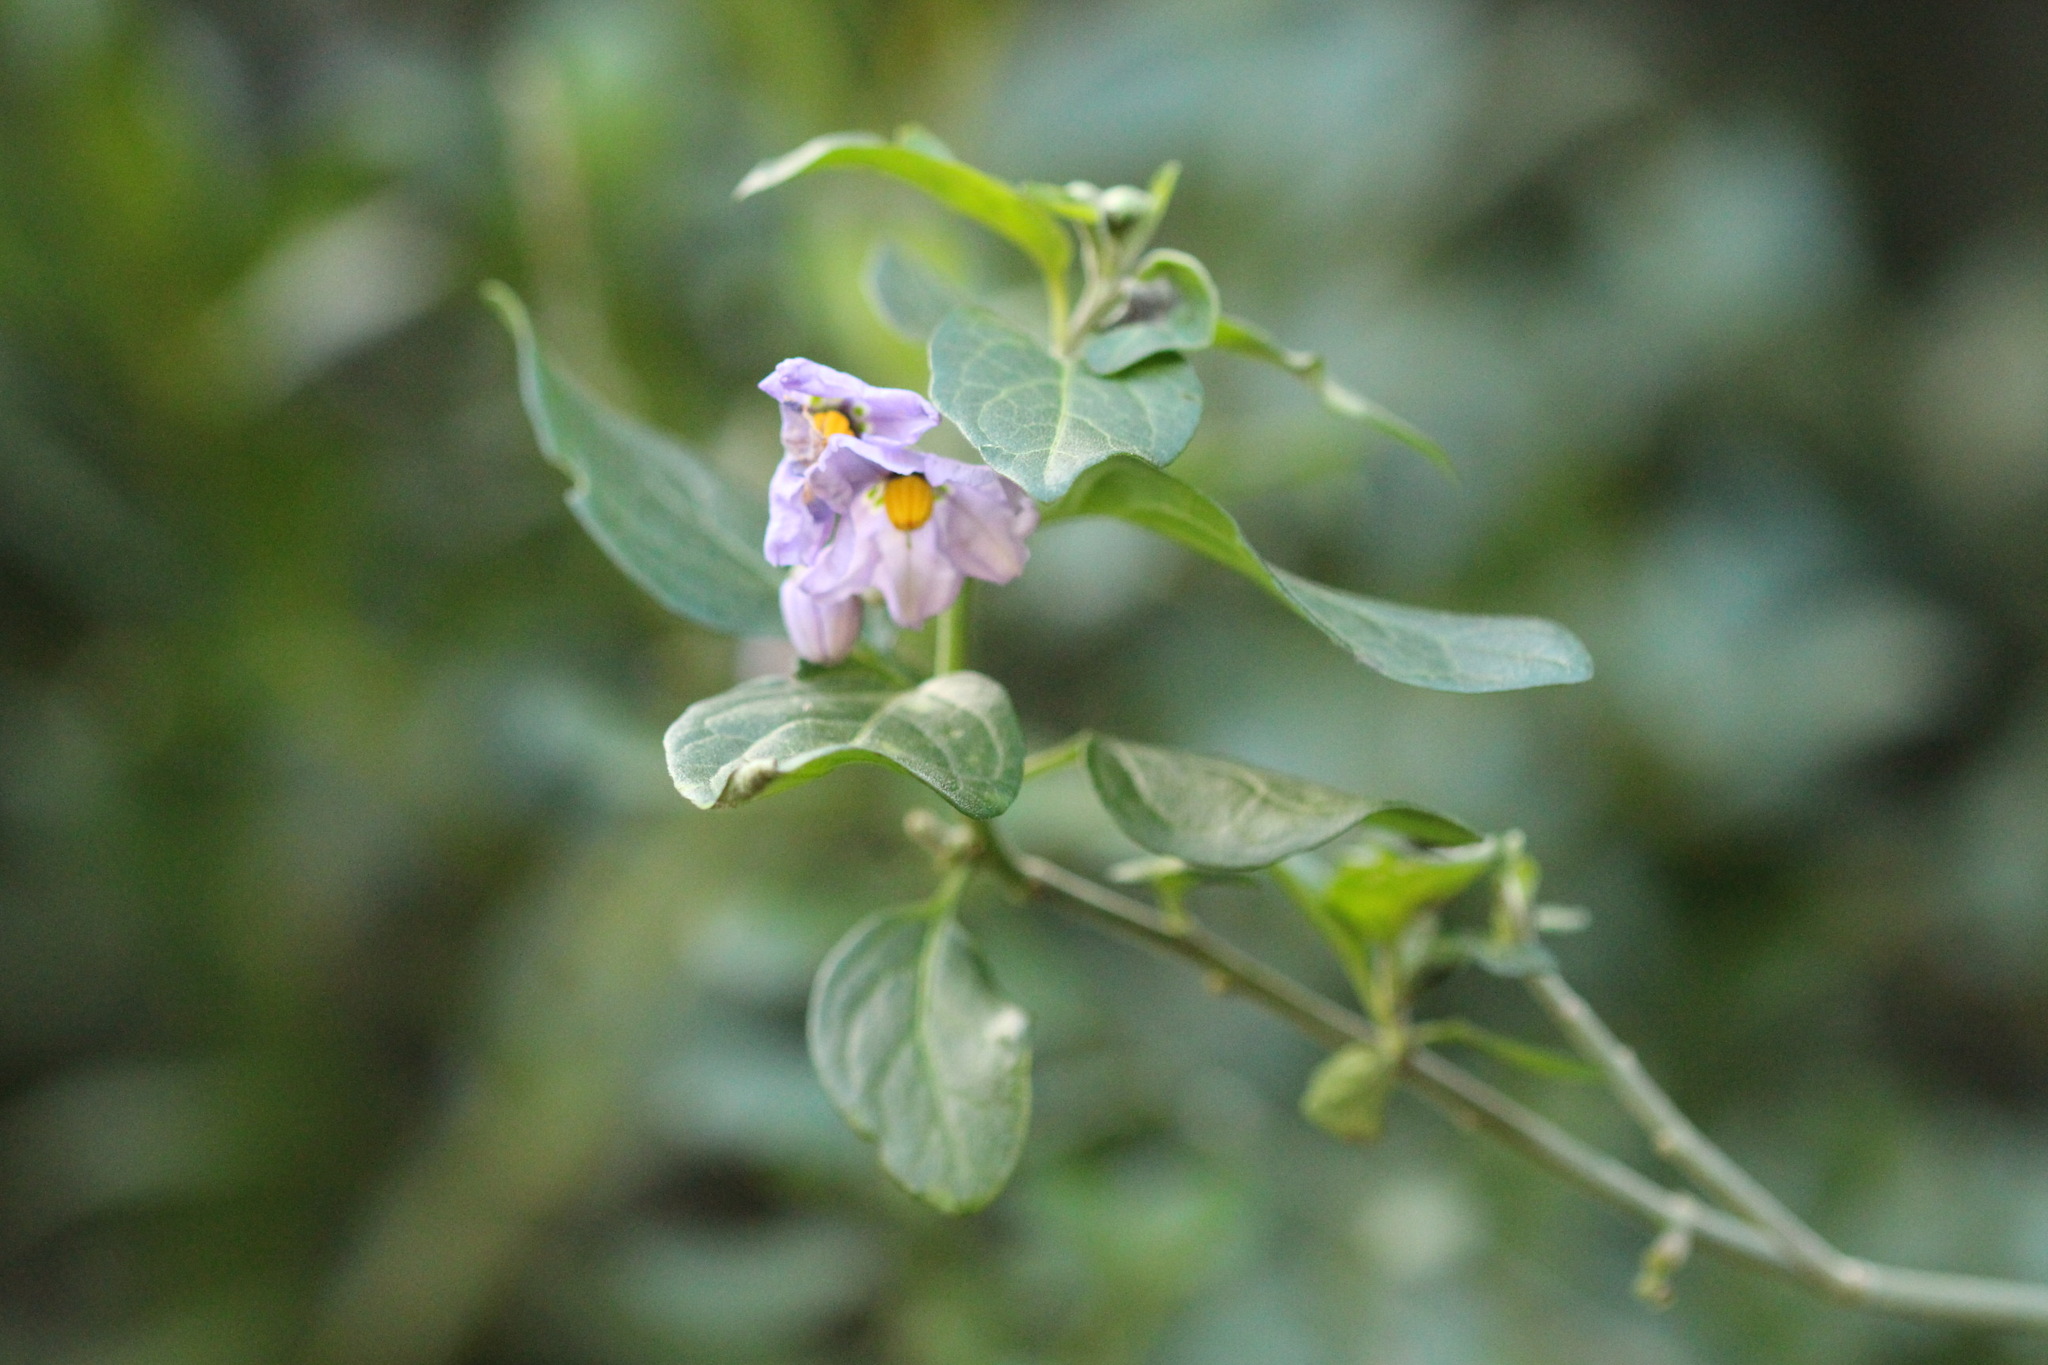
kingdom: Plantae
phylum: Tracheophyta
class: Magnoliopsida
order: Solanales
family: Solanaceae
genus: Solanum
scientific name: Solanum umbelliferum
